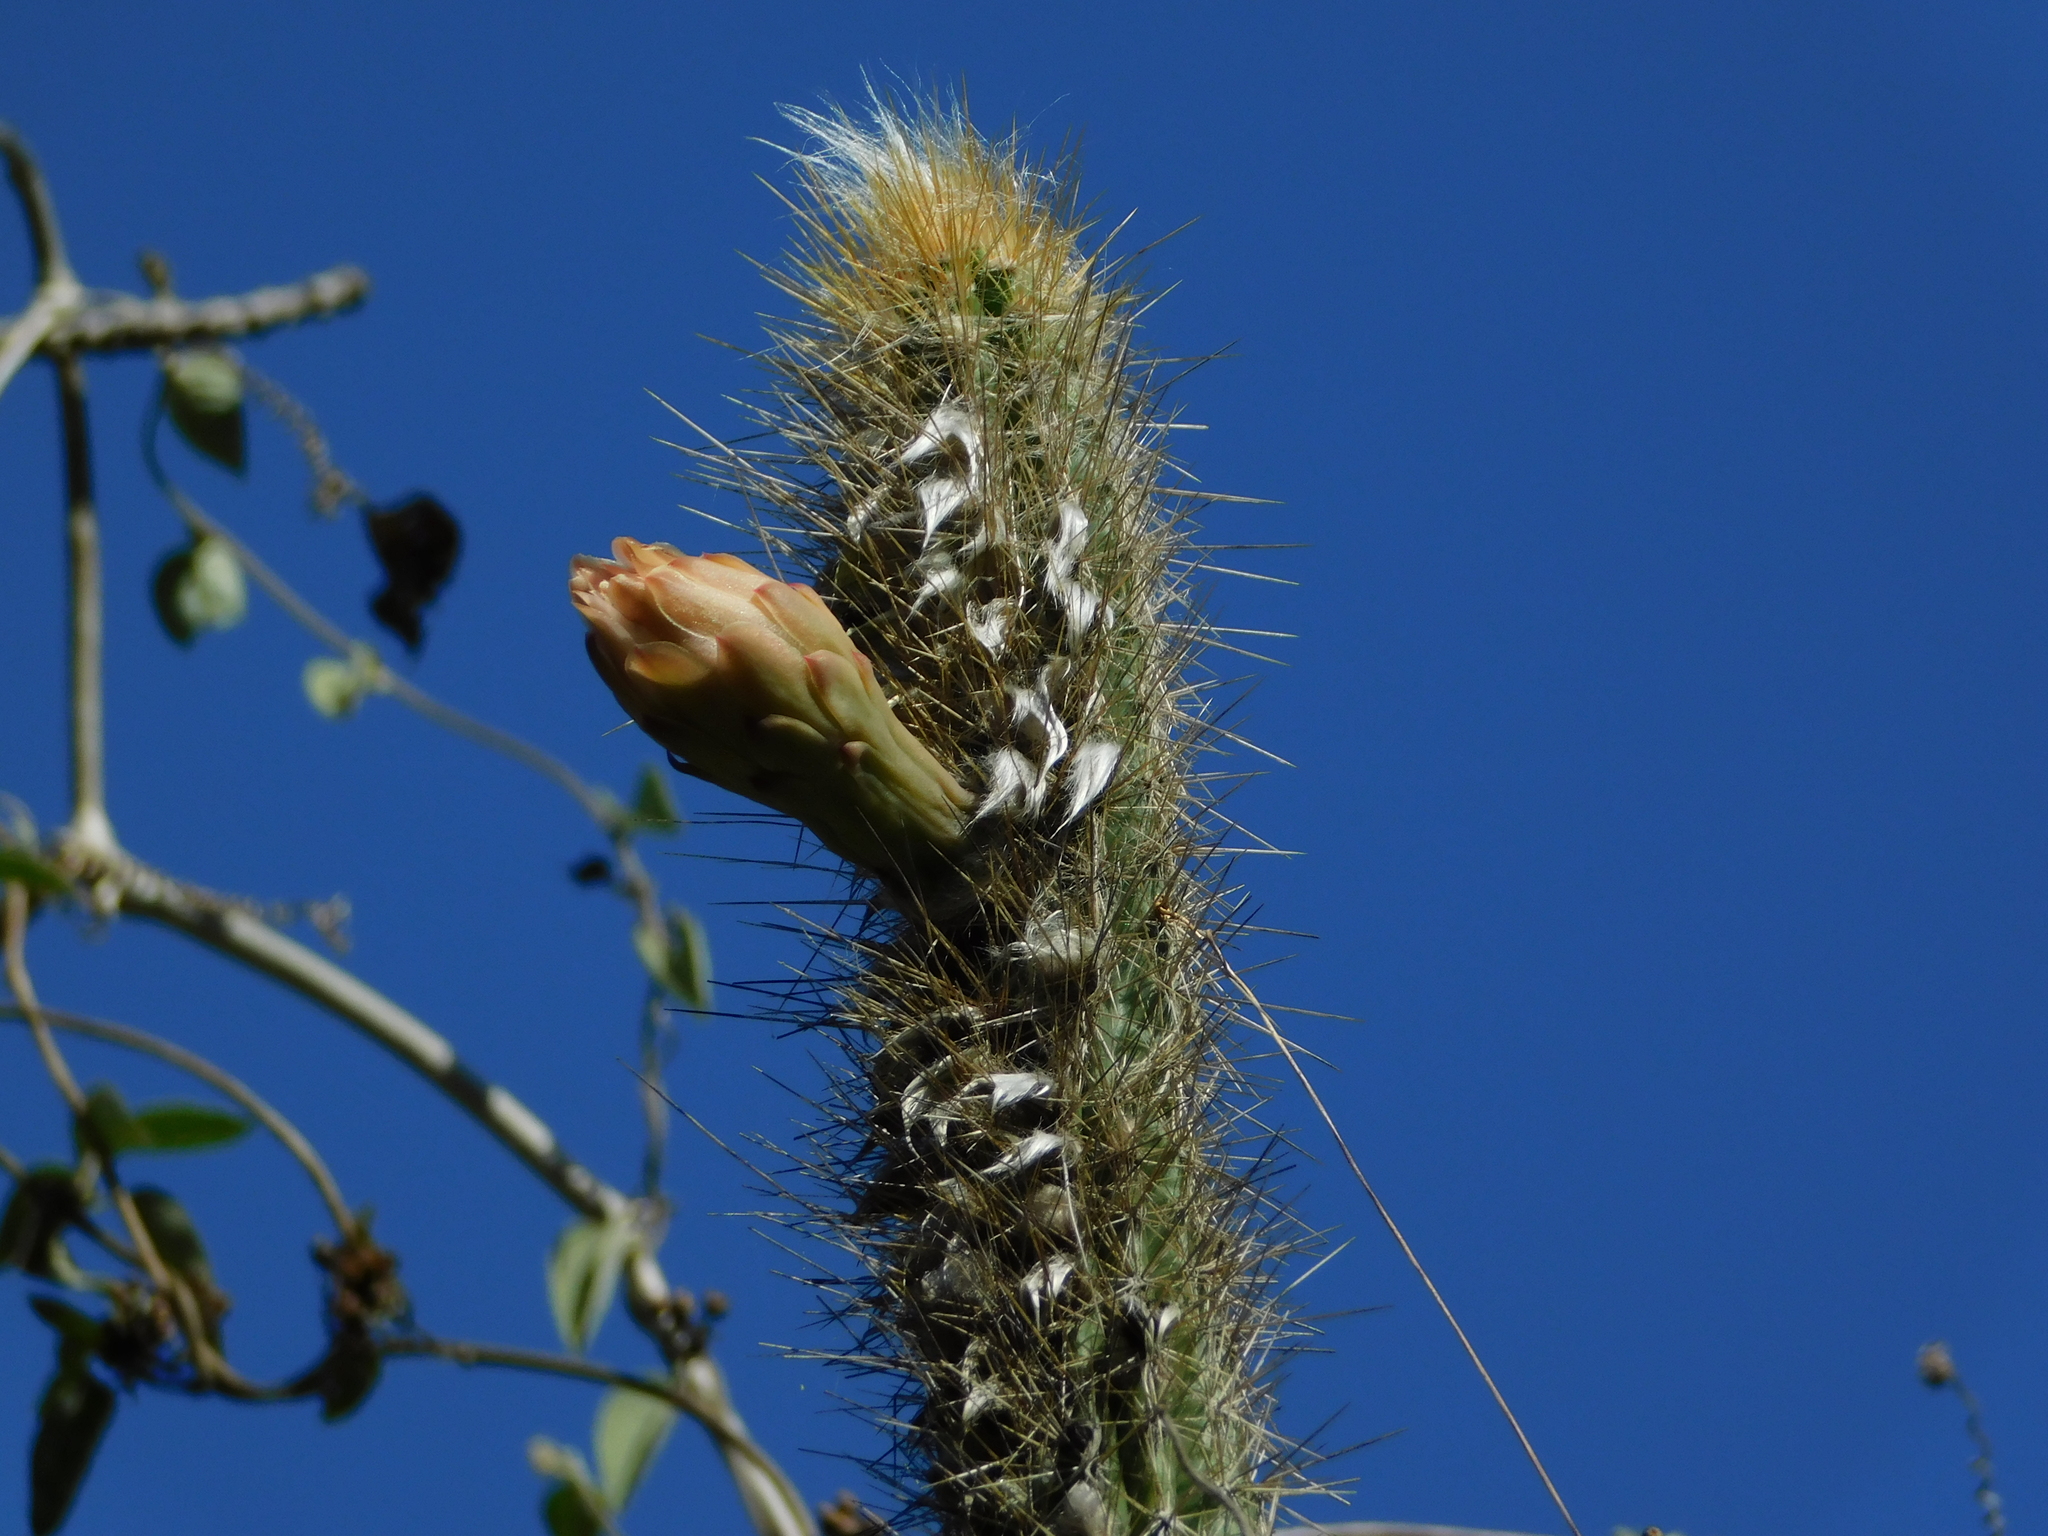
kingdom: Plantae
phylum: Tracheophyta
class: Magnoliopsida
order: Caryophyllales
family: Cactaceae
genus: Pilosocereus
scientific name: Pilosocereus gaumeri
